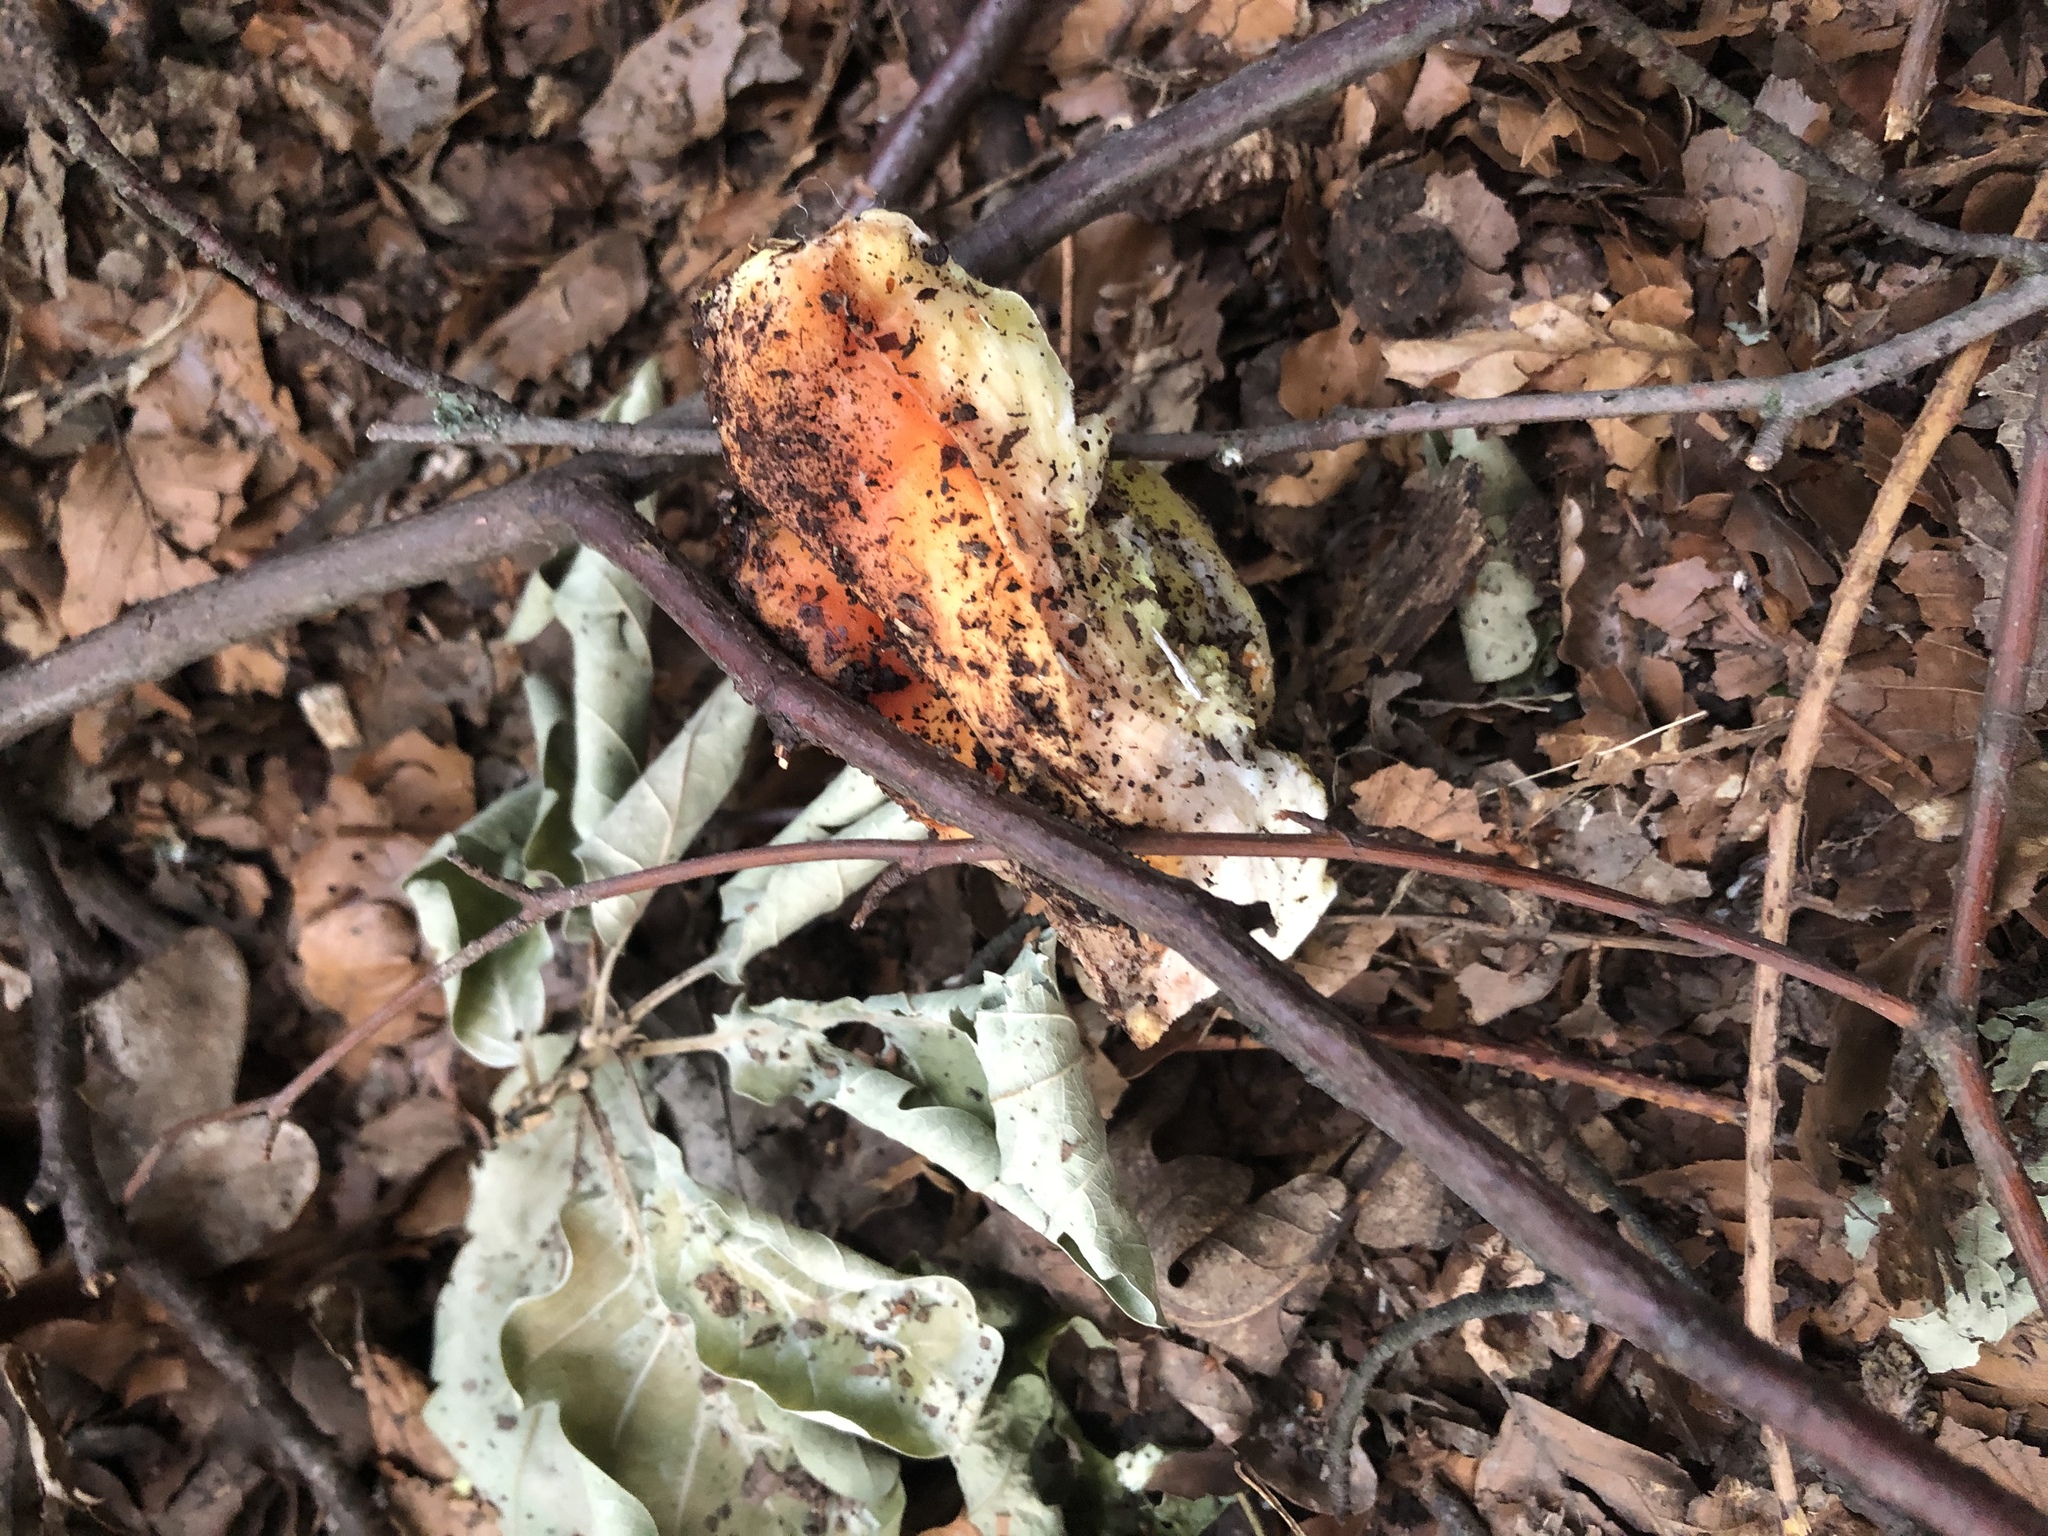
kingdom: Fungi
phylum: Basidiomycota
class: Agaricomycetes
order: Polyporales
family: Laetiporaceae
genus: Laetiporus
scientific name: Laetiporus sulphureus
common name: Chicken of the woods
